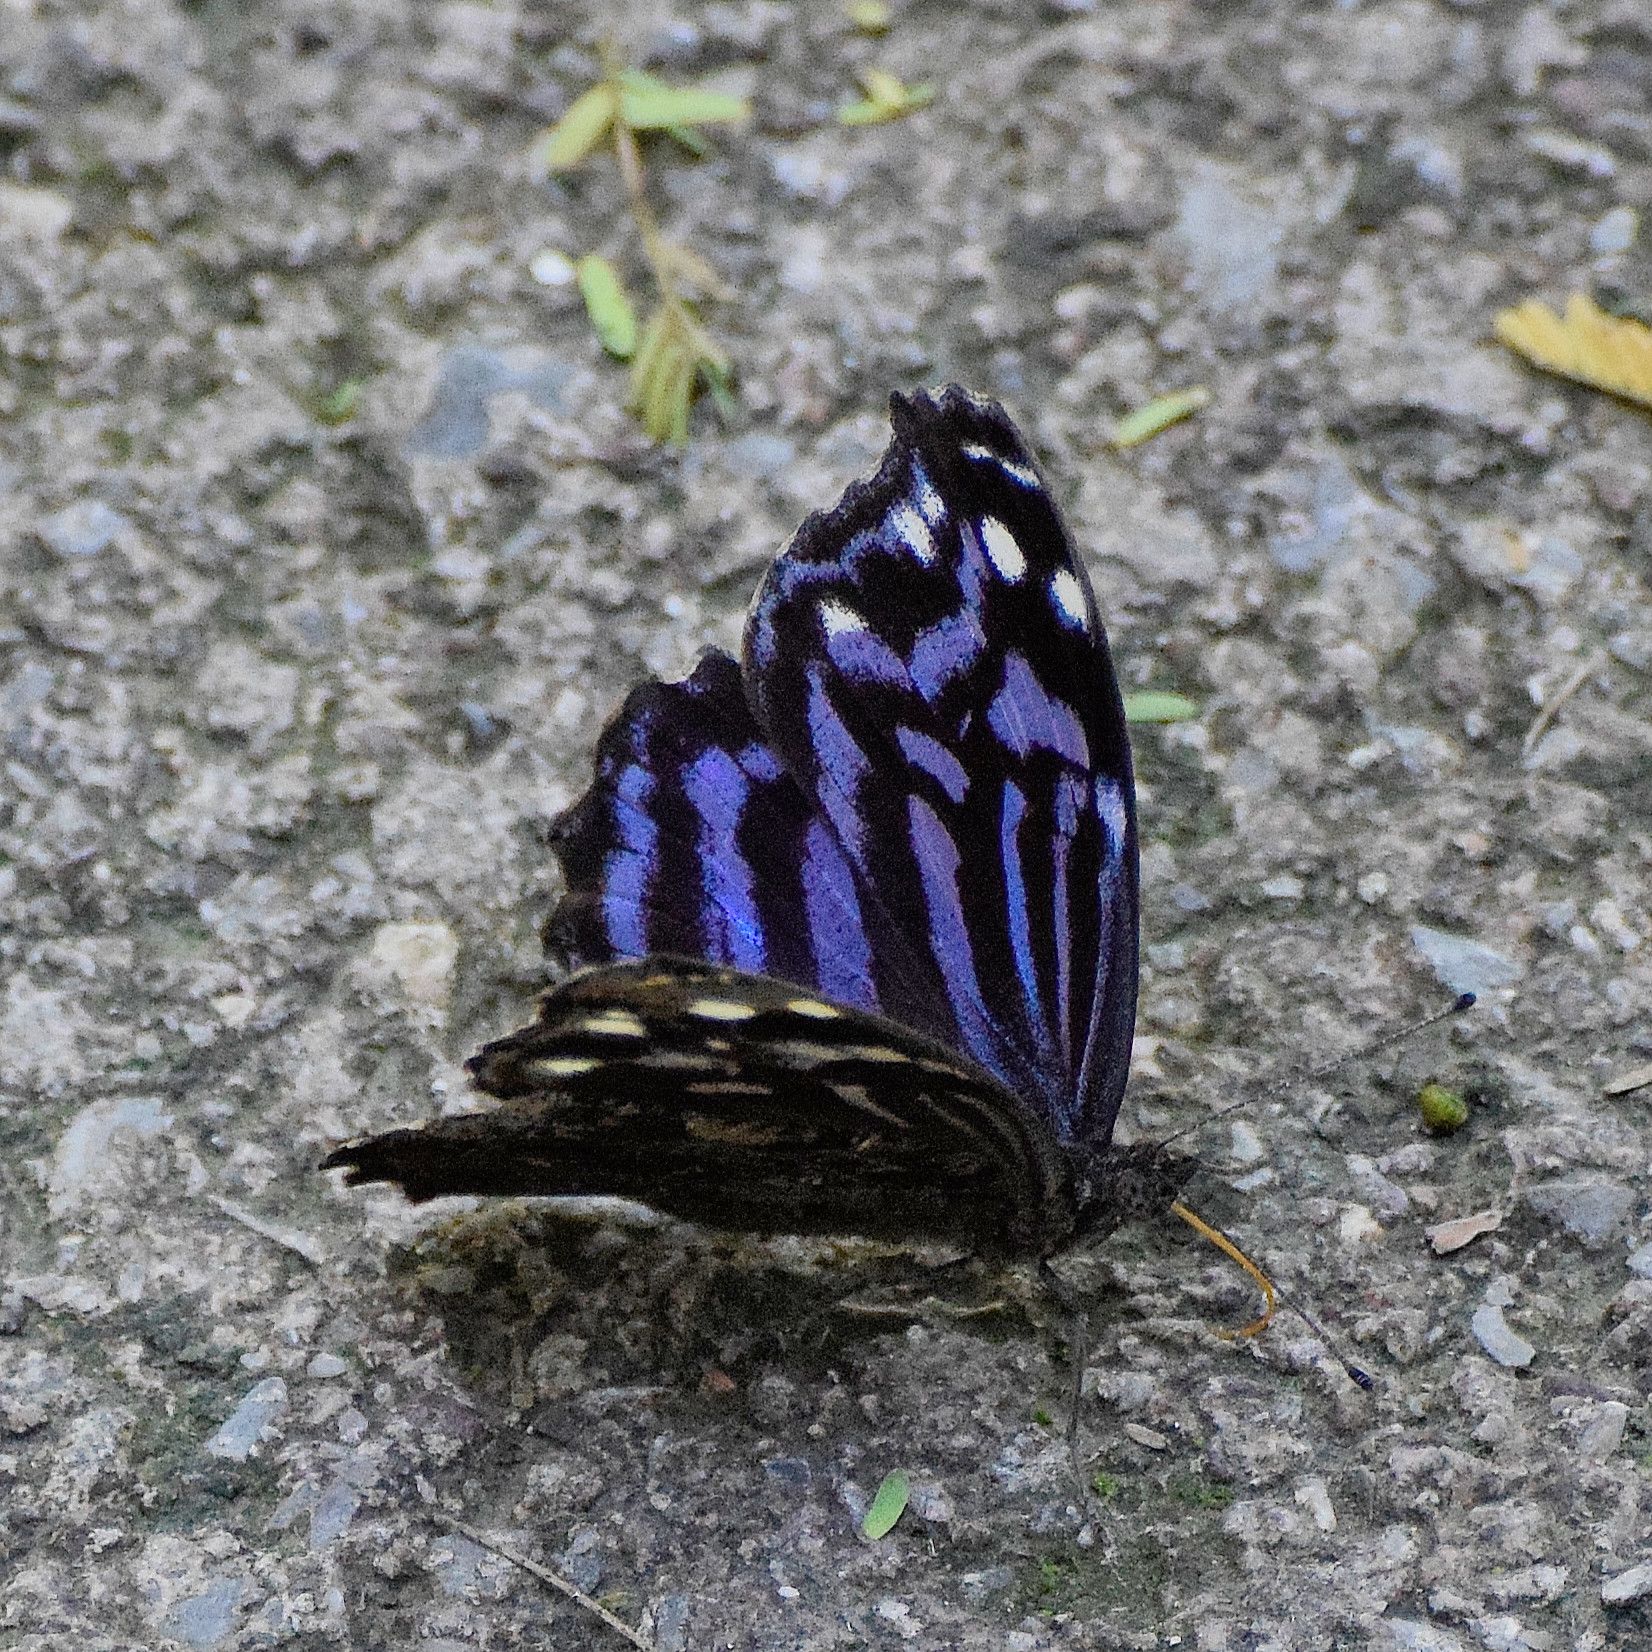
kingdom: Animalia
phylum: Arthropoda
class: Insecta
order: Lepidoptera
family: Nymphalidae
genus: Myscelia
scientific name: Myscelia ethusa
